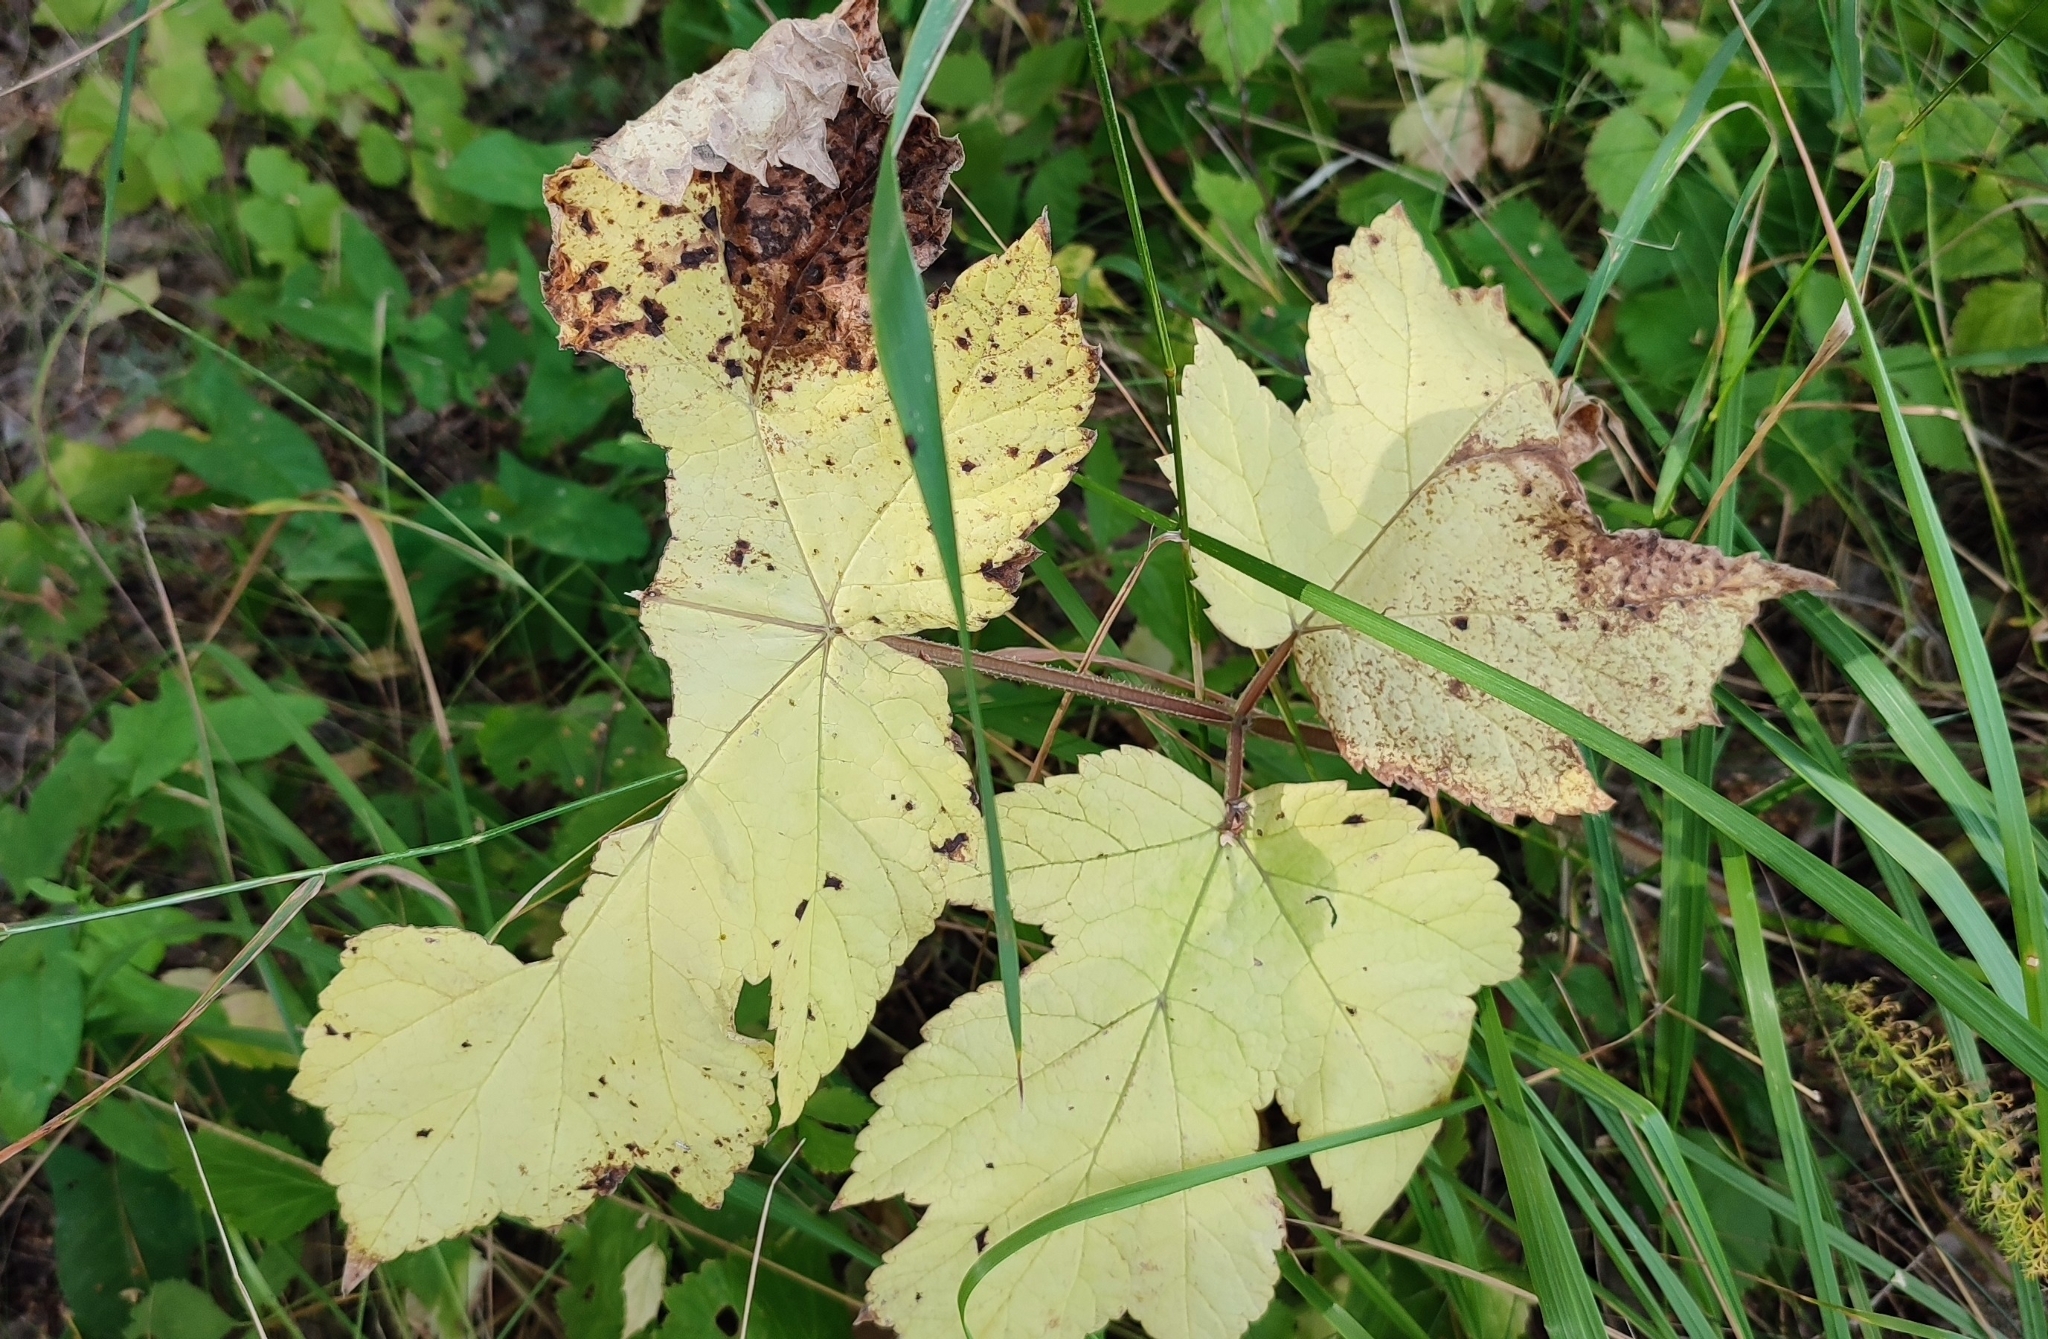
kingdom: Plantae
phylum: Tracheophyta
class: Magnoliopsida
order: Apiales
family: Apiaceae
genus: Heracleum
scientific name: Heracleum sphondylium
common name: Hogweed
